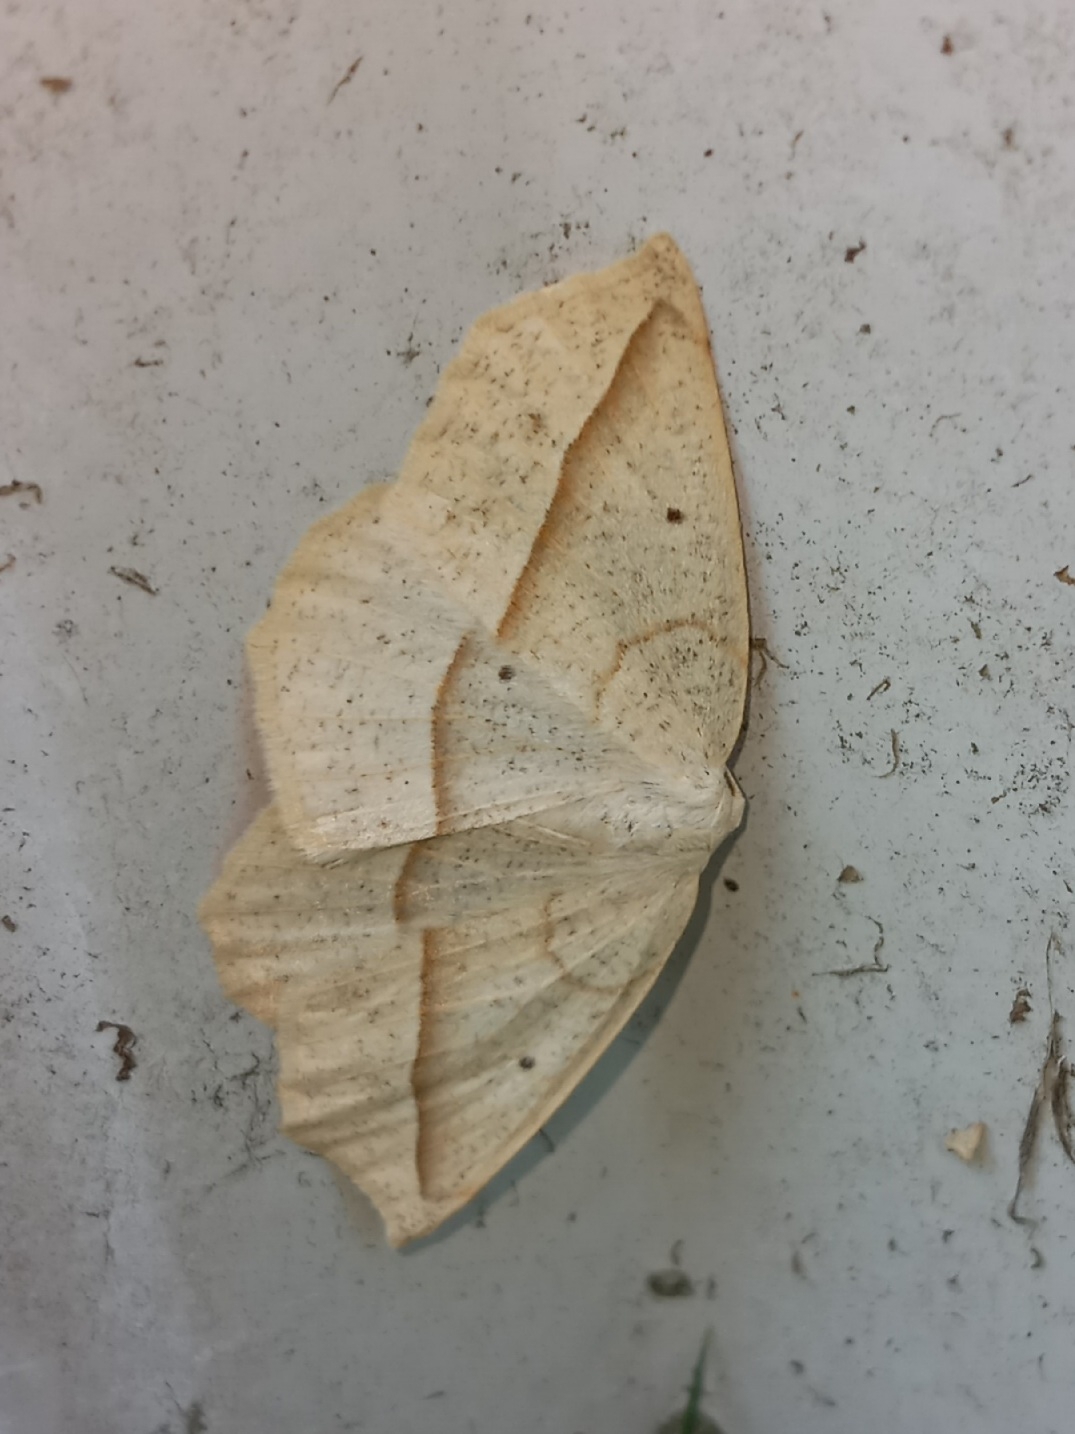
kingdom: Animalia
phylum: Arthropoda
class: Insecta
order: Lepidoptera
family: Geometridae
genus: Eusarca
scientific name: Eusarca confusaria
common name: Confused eusarca
